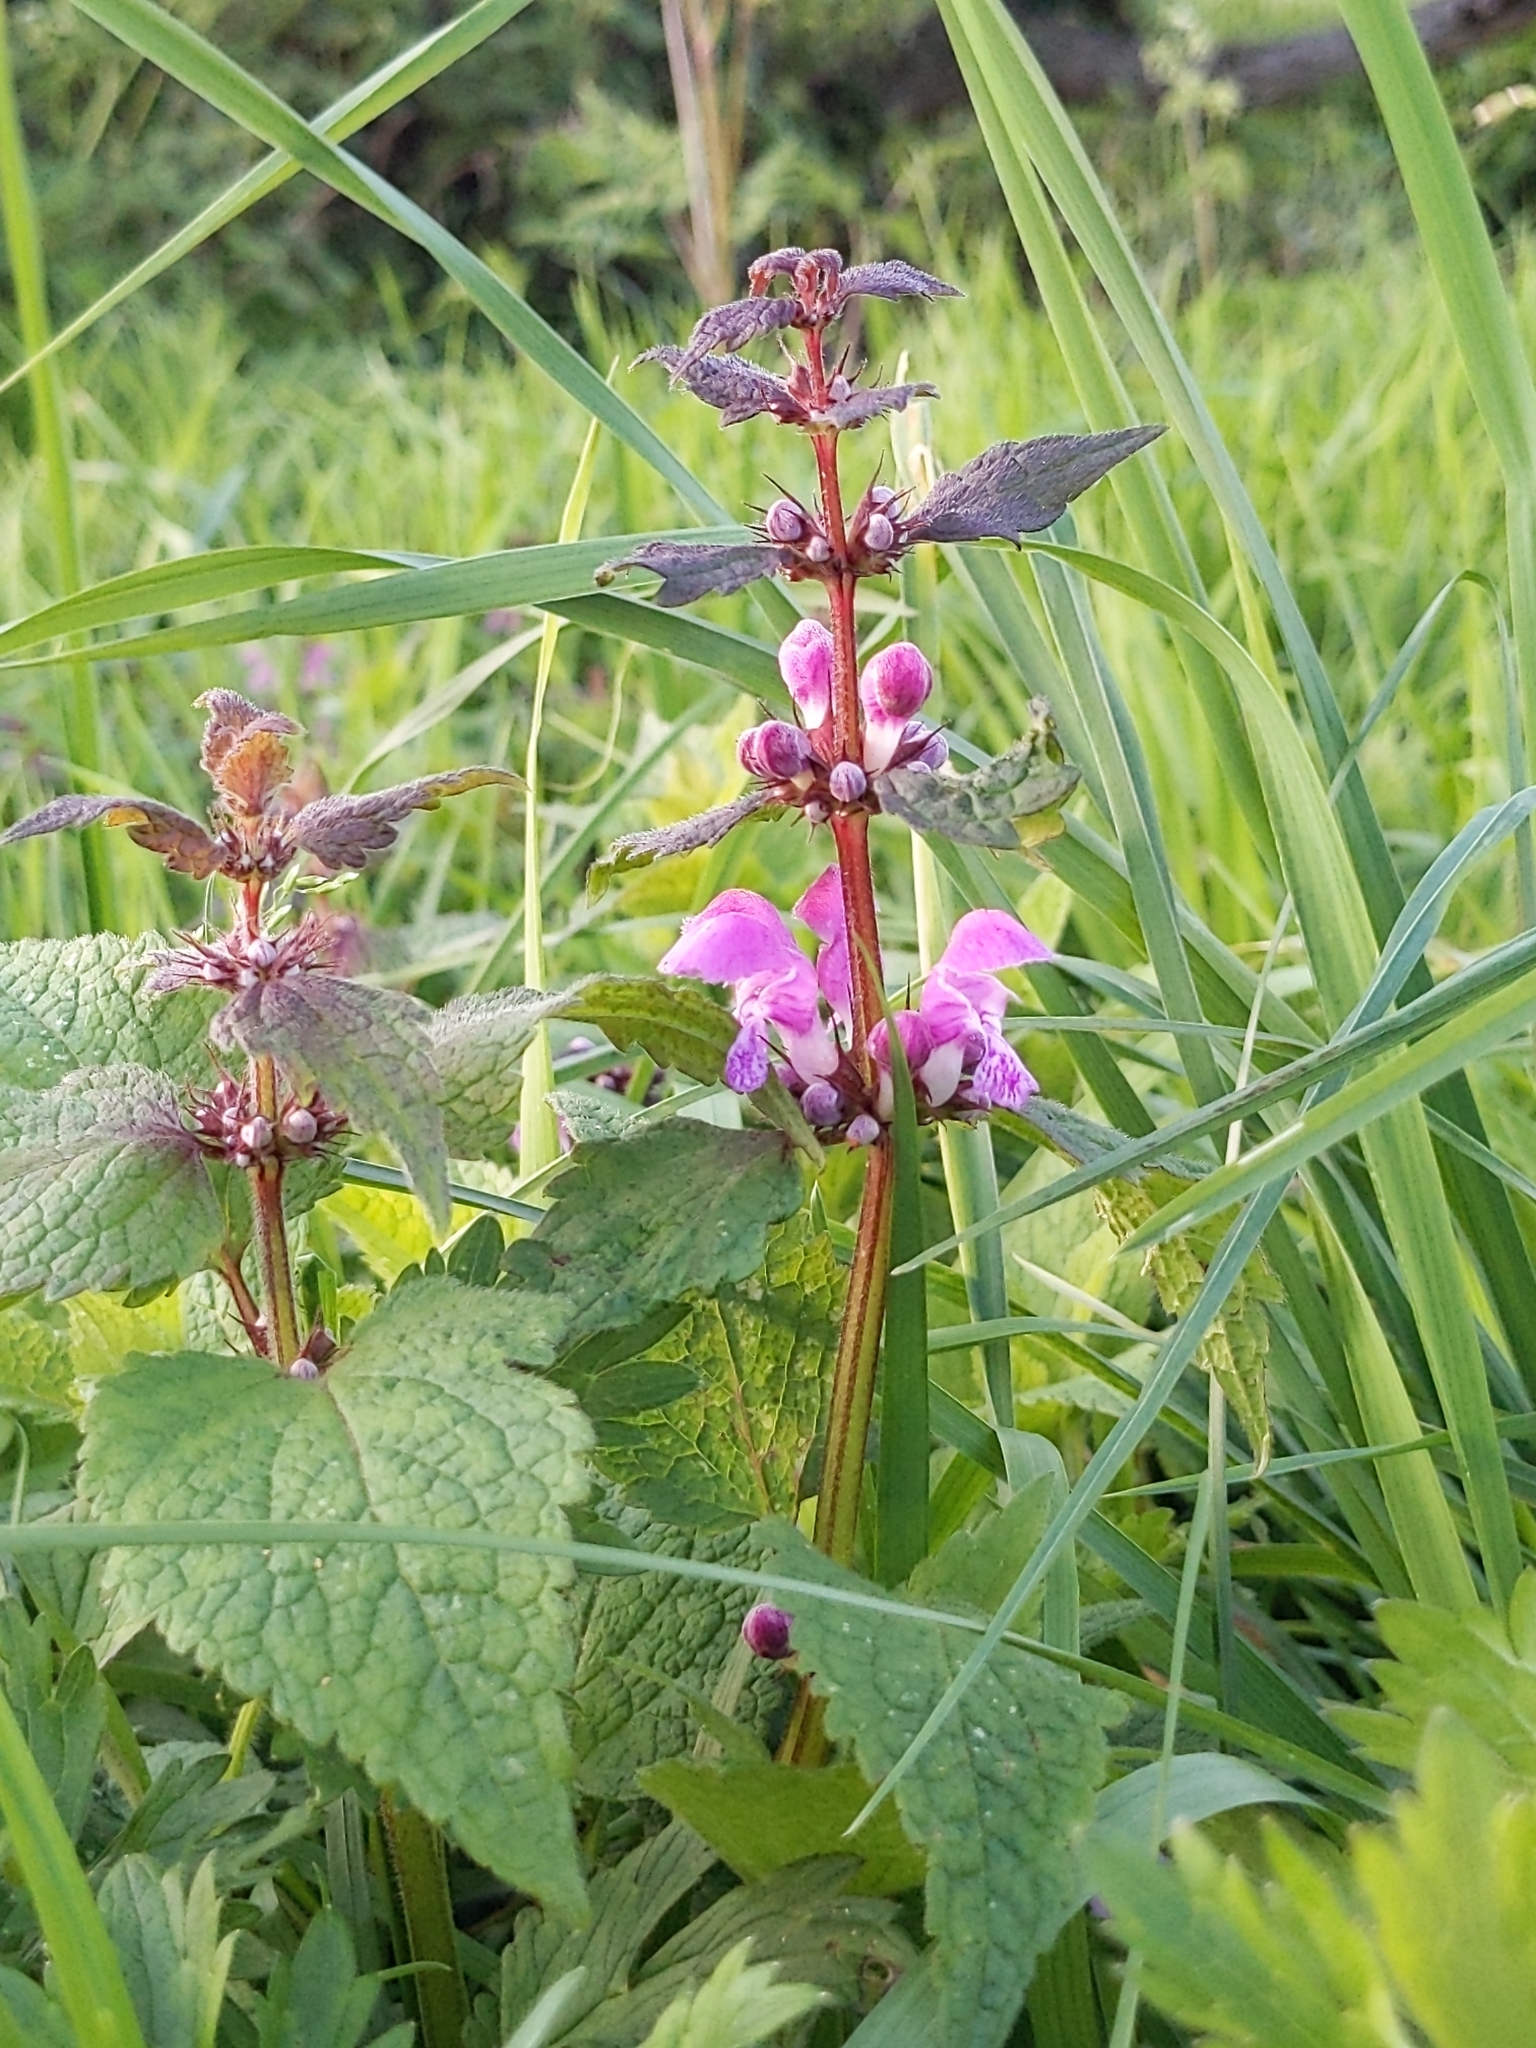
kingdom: Plantae
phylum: Tracheophyta
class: Magnoliopsida
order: Lamiales
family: Lamiaceae
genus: Lamium
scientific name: Lamium maculatum
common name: Spotted dead-nettle
